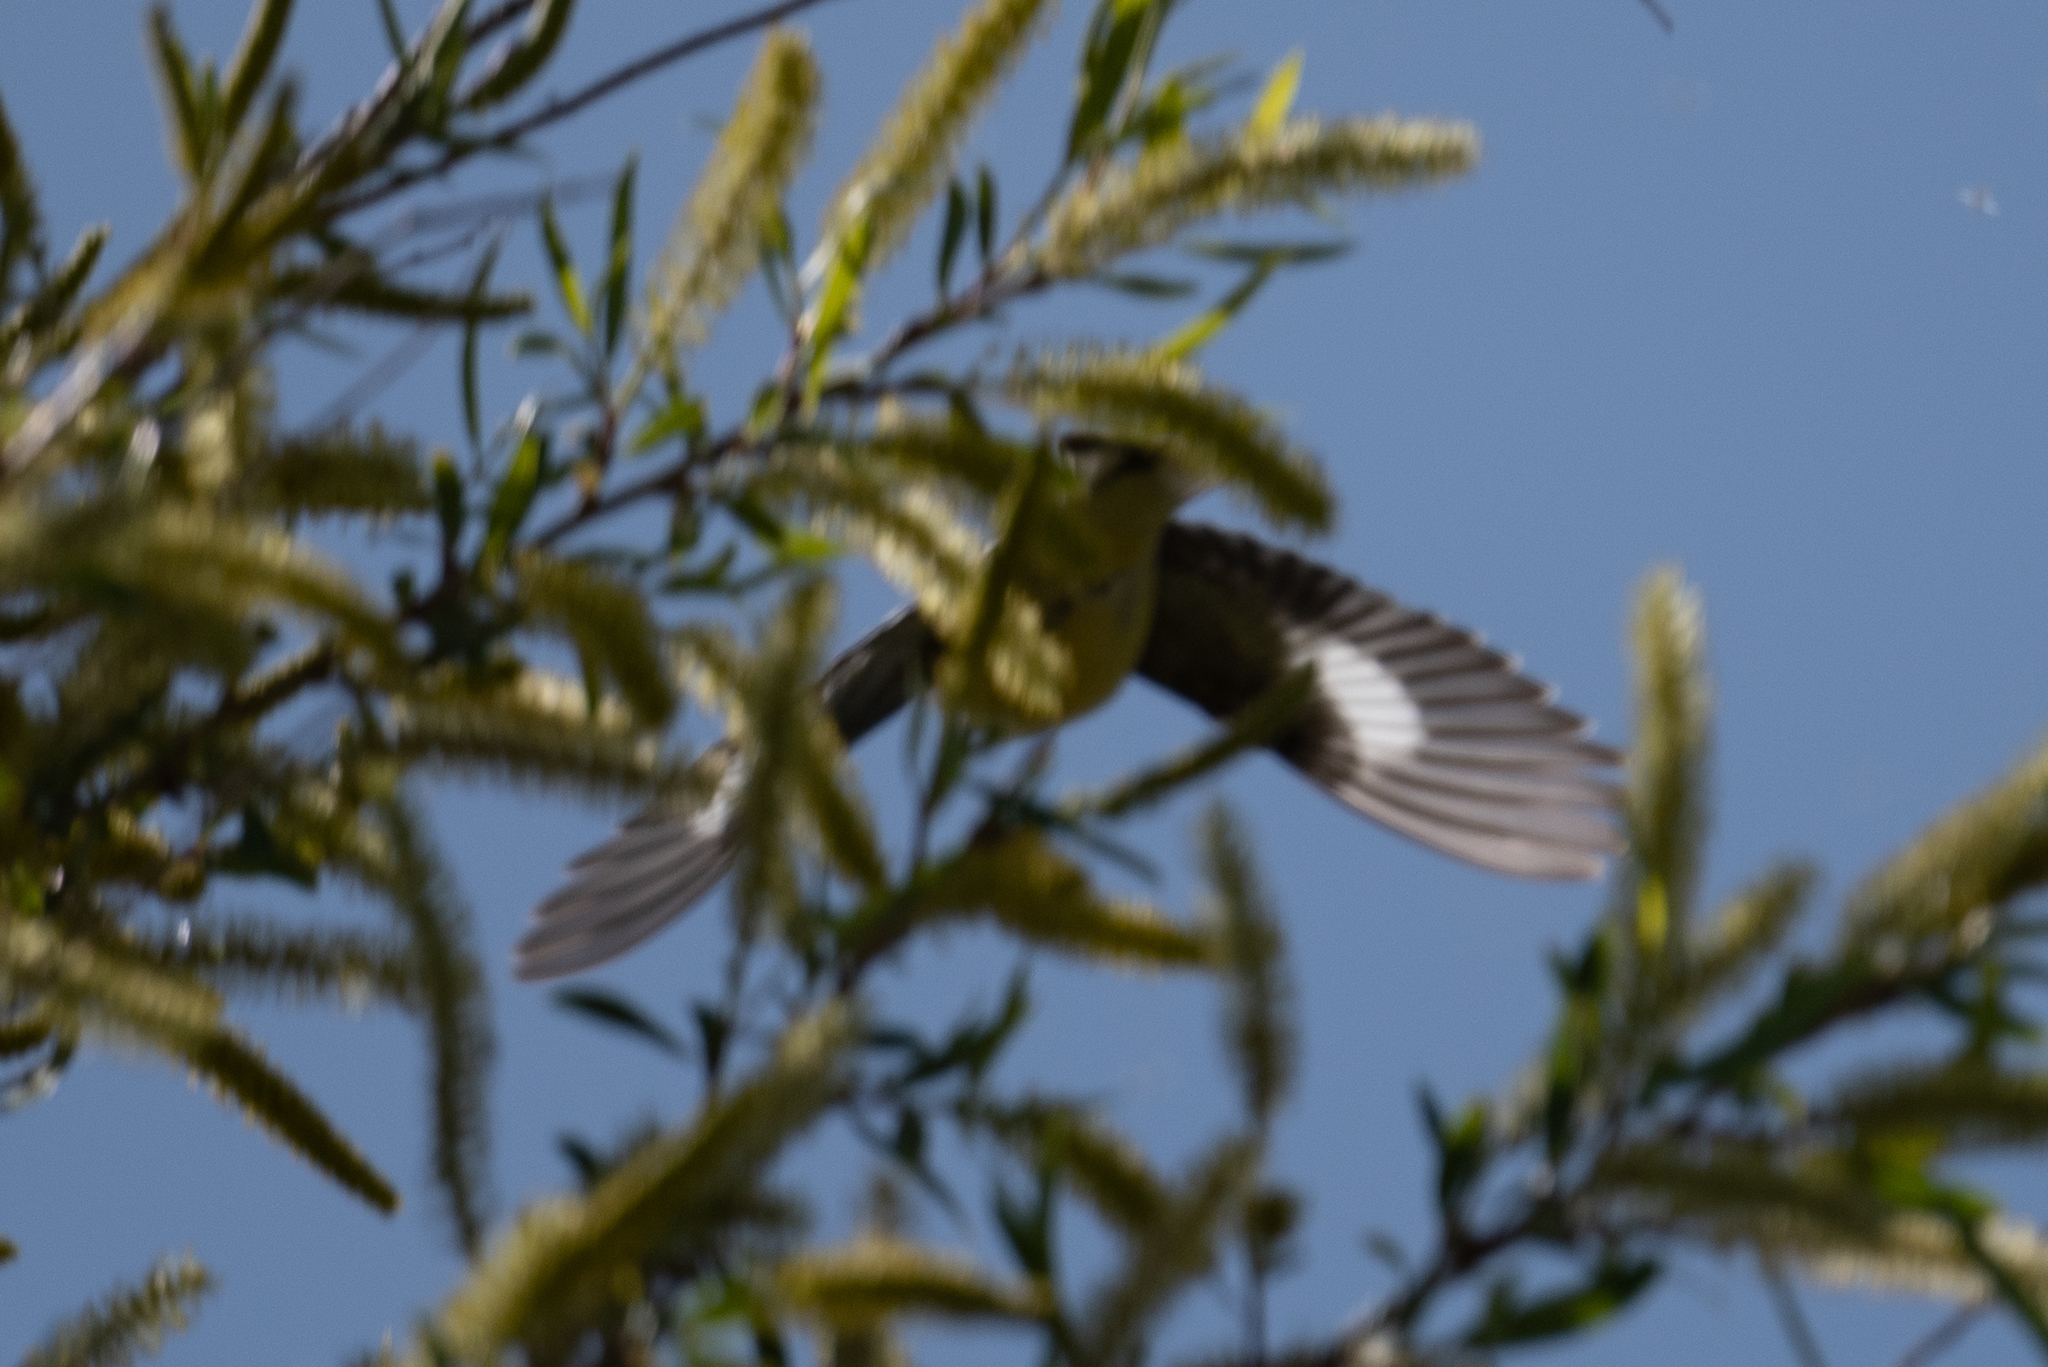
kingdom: Animalia
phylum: Chordata
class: Aves
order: Passeriformes
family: Fringillidae
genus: Spinus
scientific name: Spinus psaltria
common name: Lesser goldfinch
